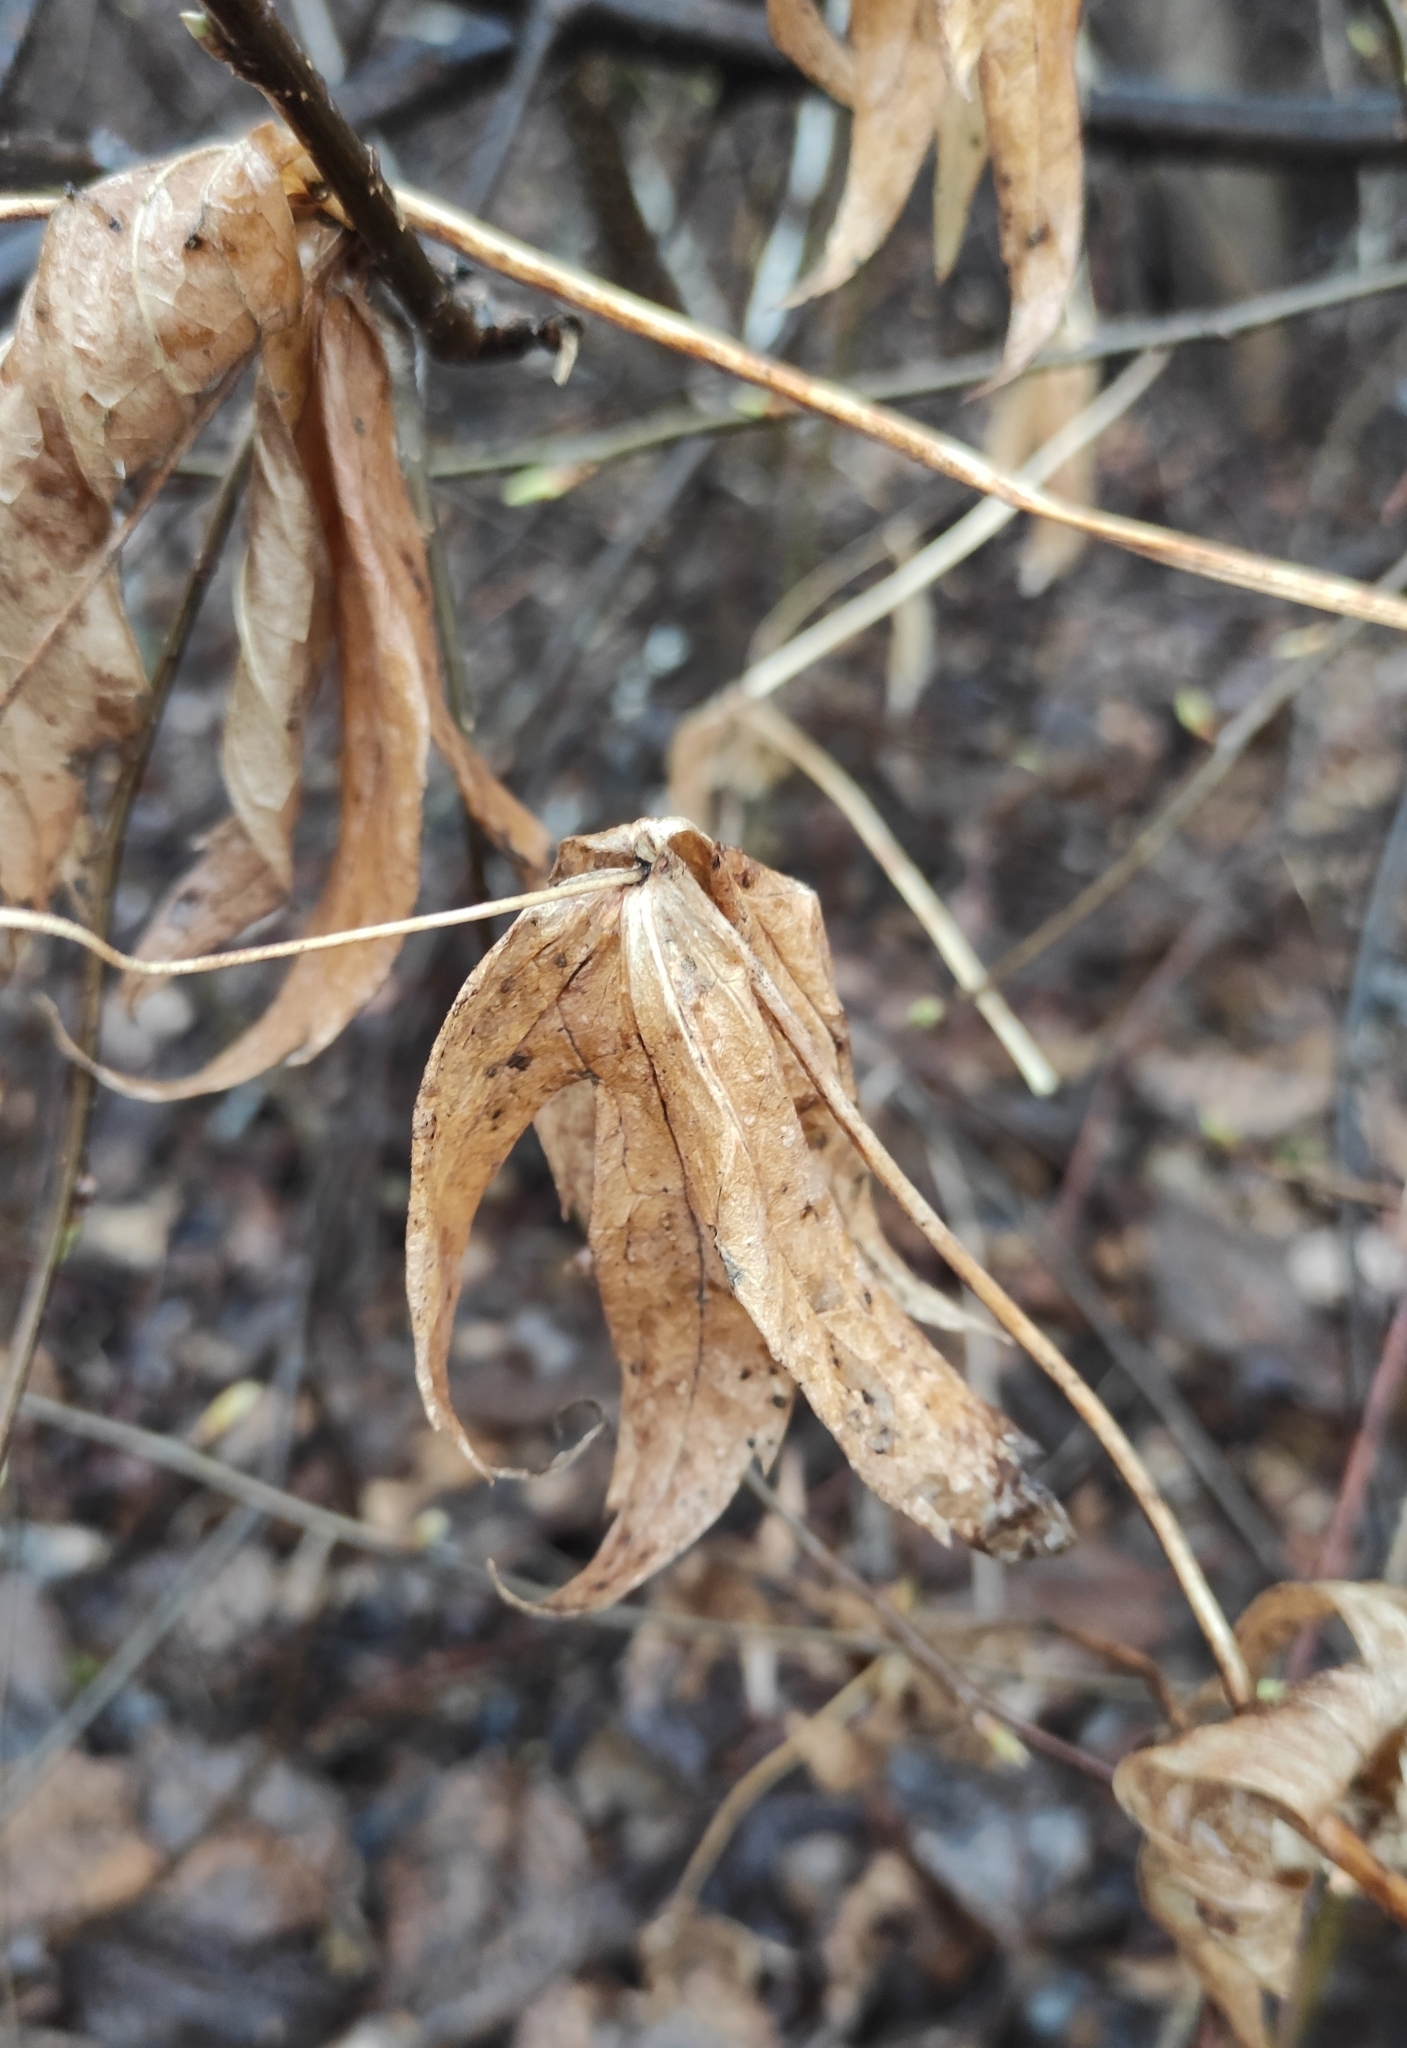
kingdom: Plantae
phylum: Tracheophyta
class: Magnoliopsida
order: Ranunculales
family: Ranunculaceae
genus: Anemonastrum
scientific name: Anemonastrum dichotomum
